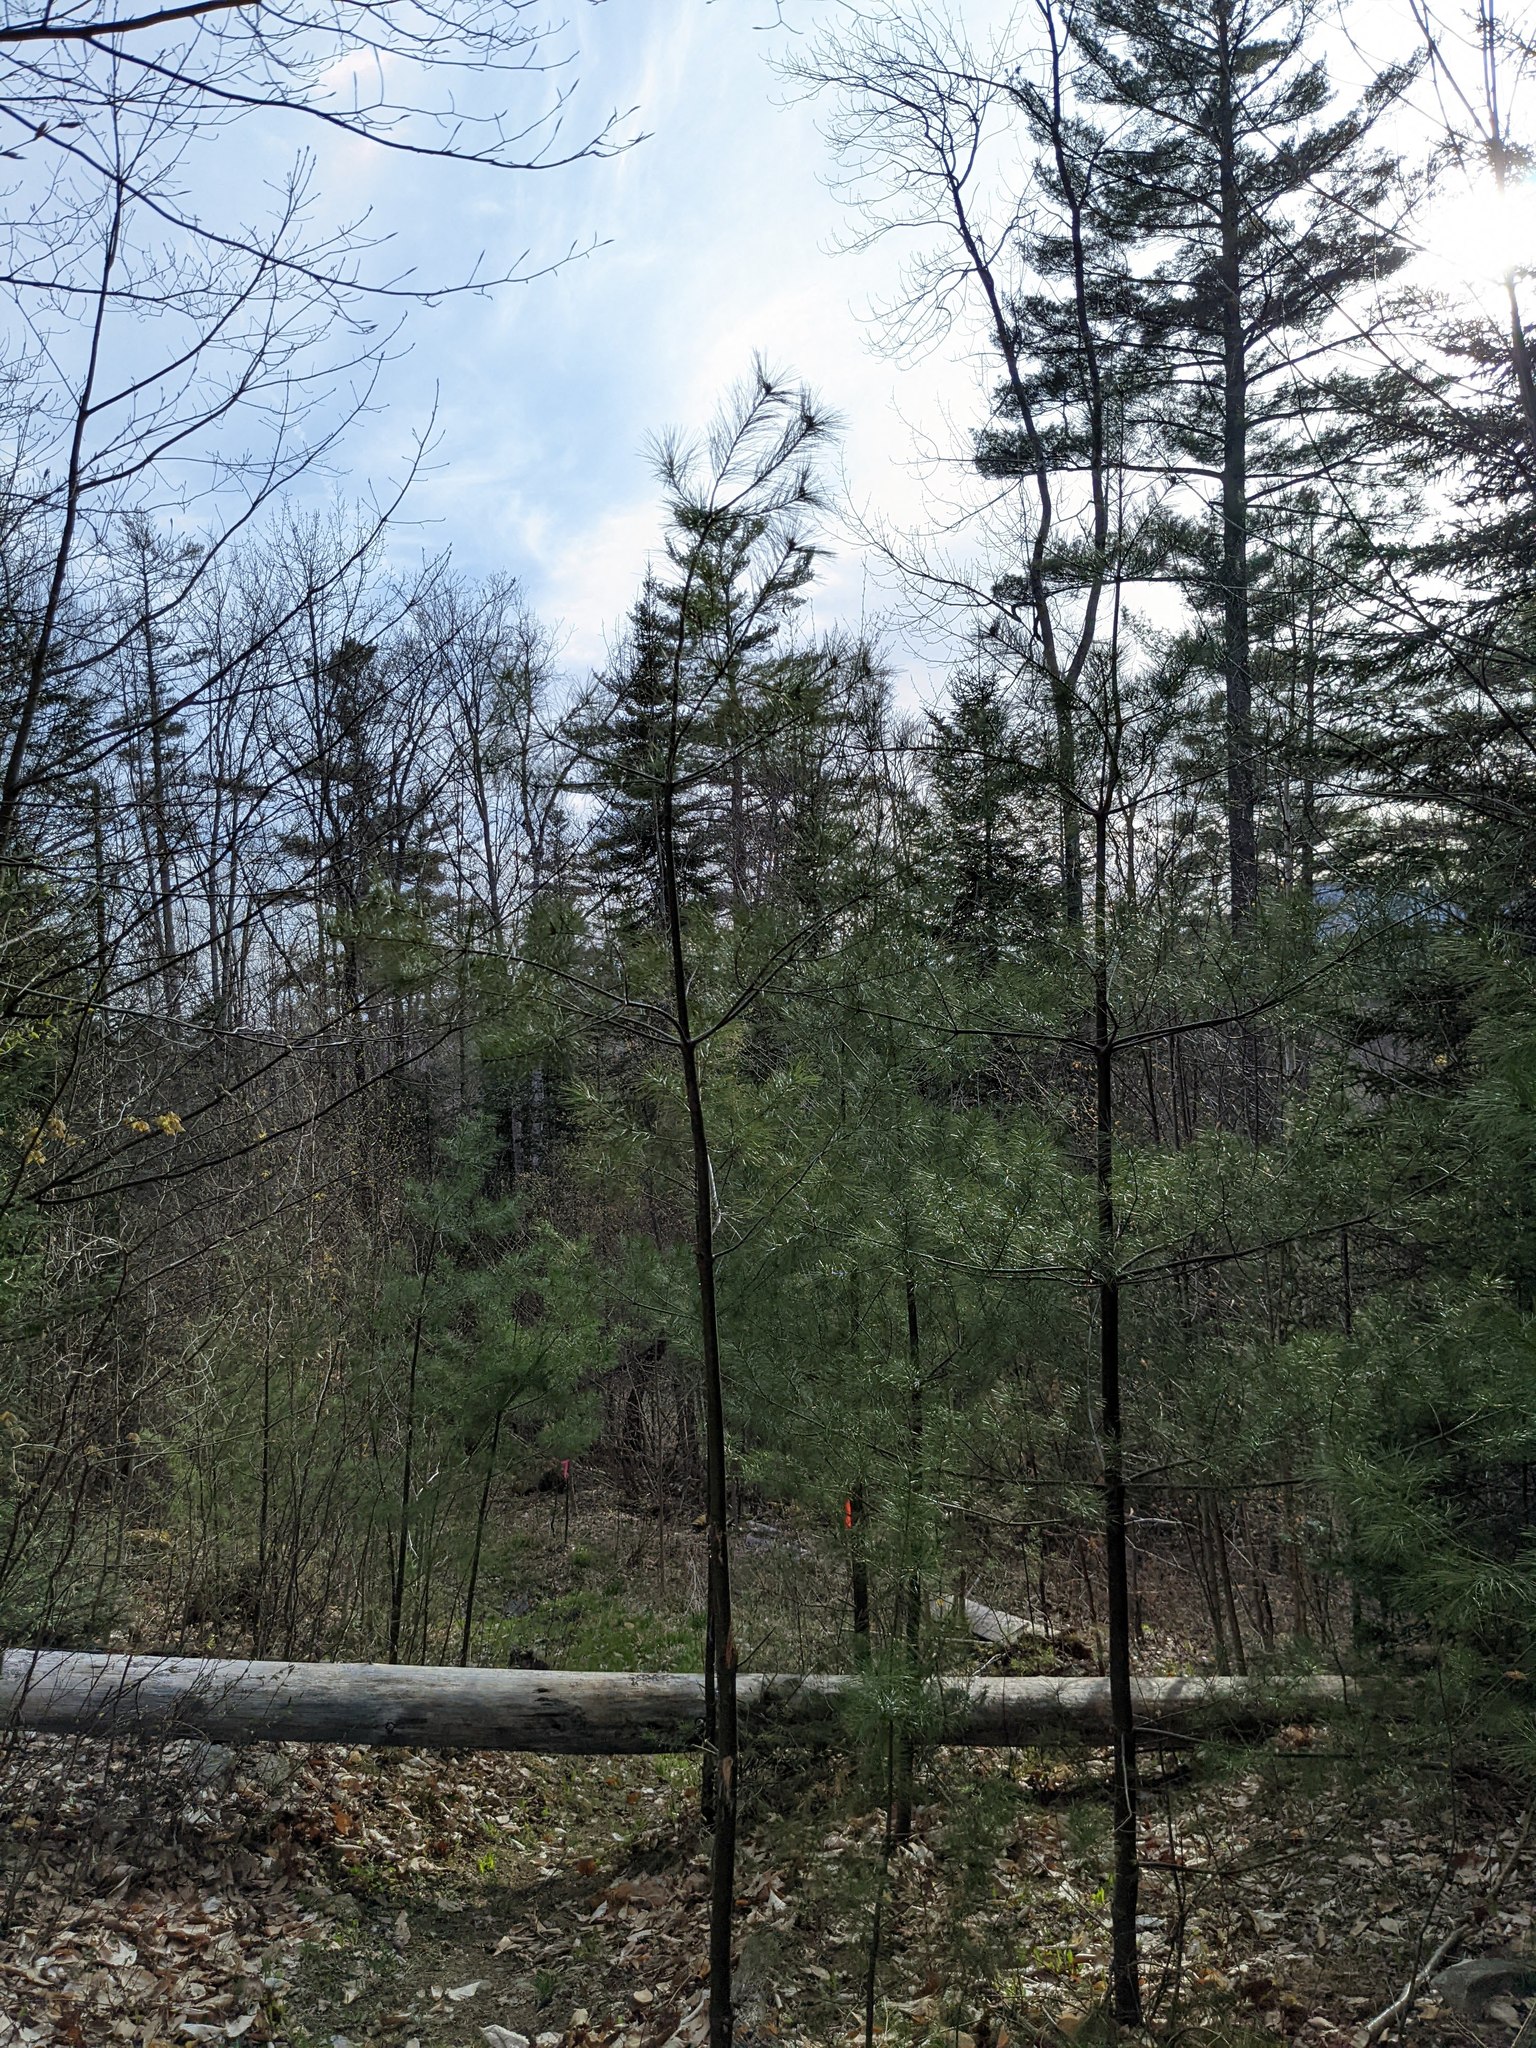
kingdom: Plantae
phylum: Tracheophyta
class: Pinopsida
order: Pinales
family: Pinaceae
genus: Pinus
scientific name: Pinus strobus
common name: Weymouth pine
